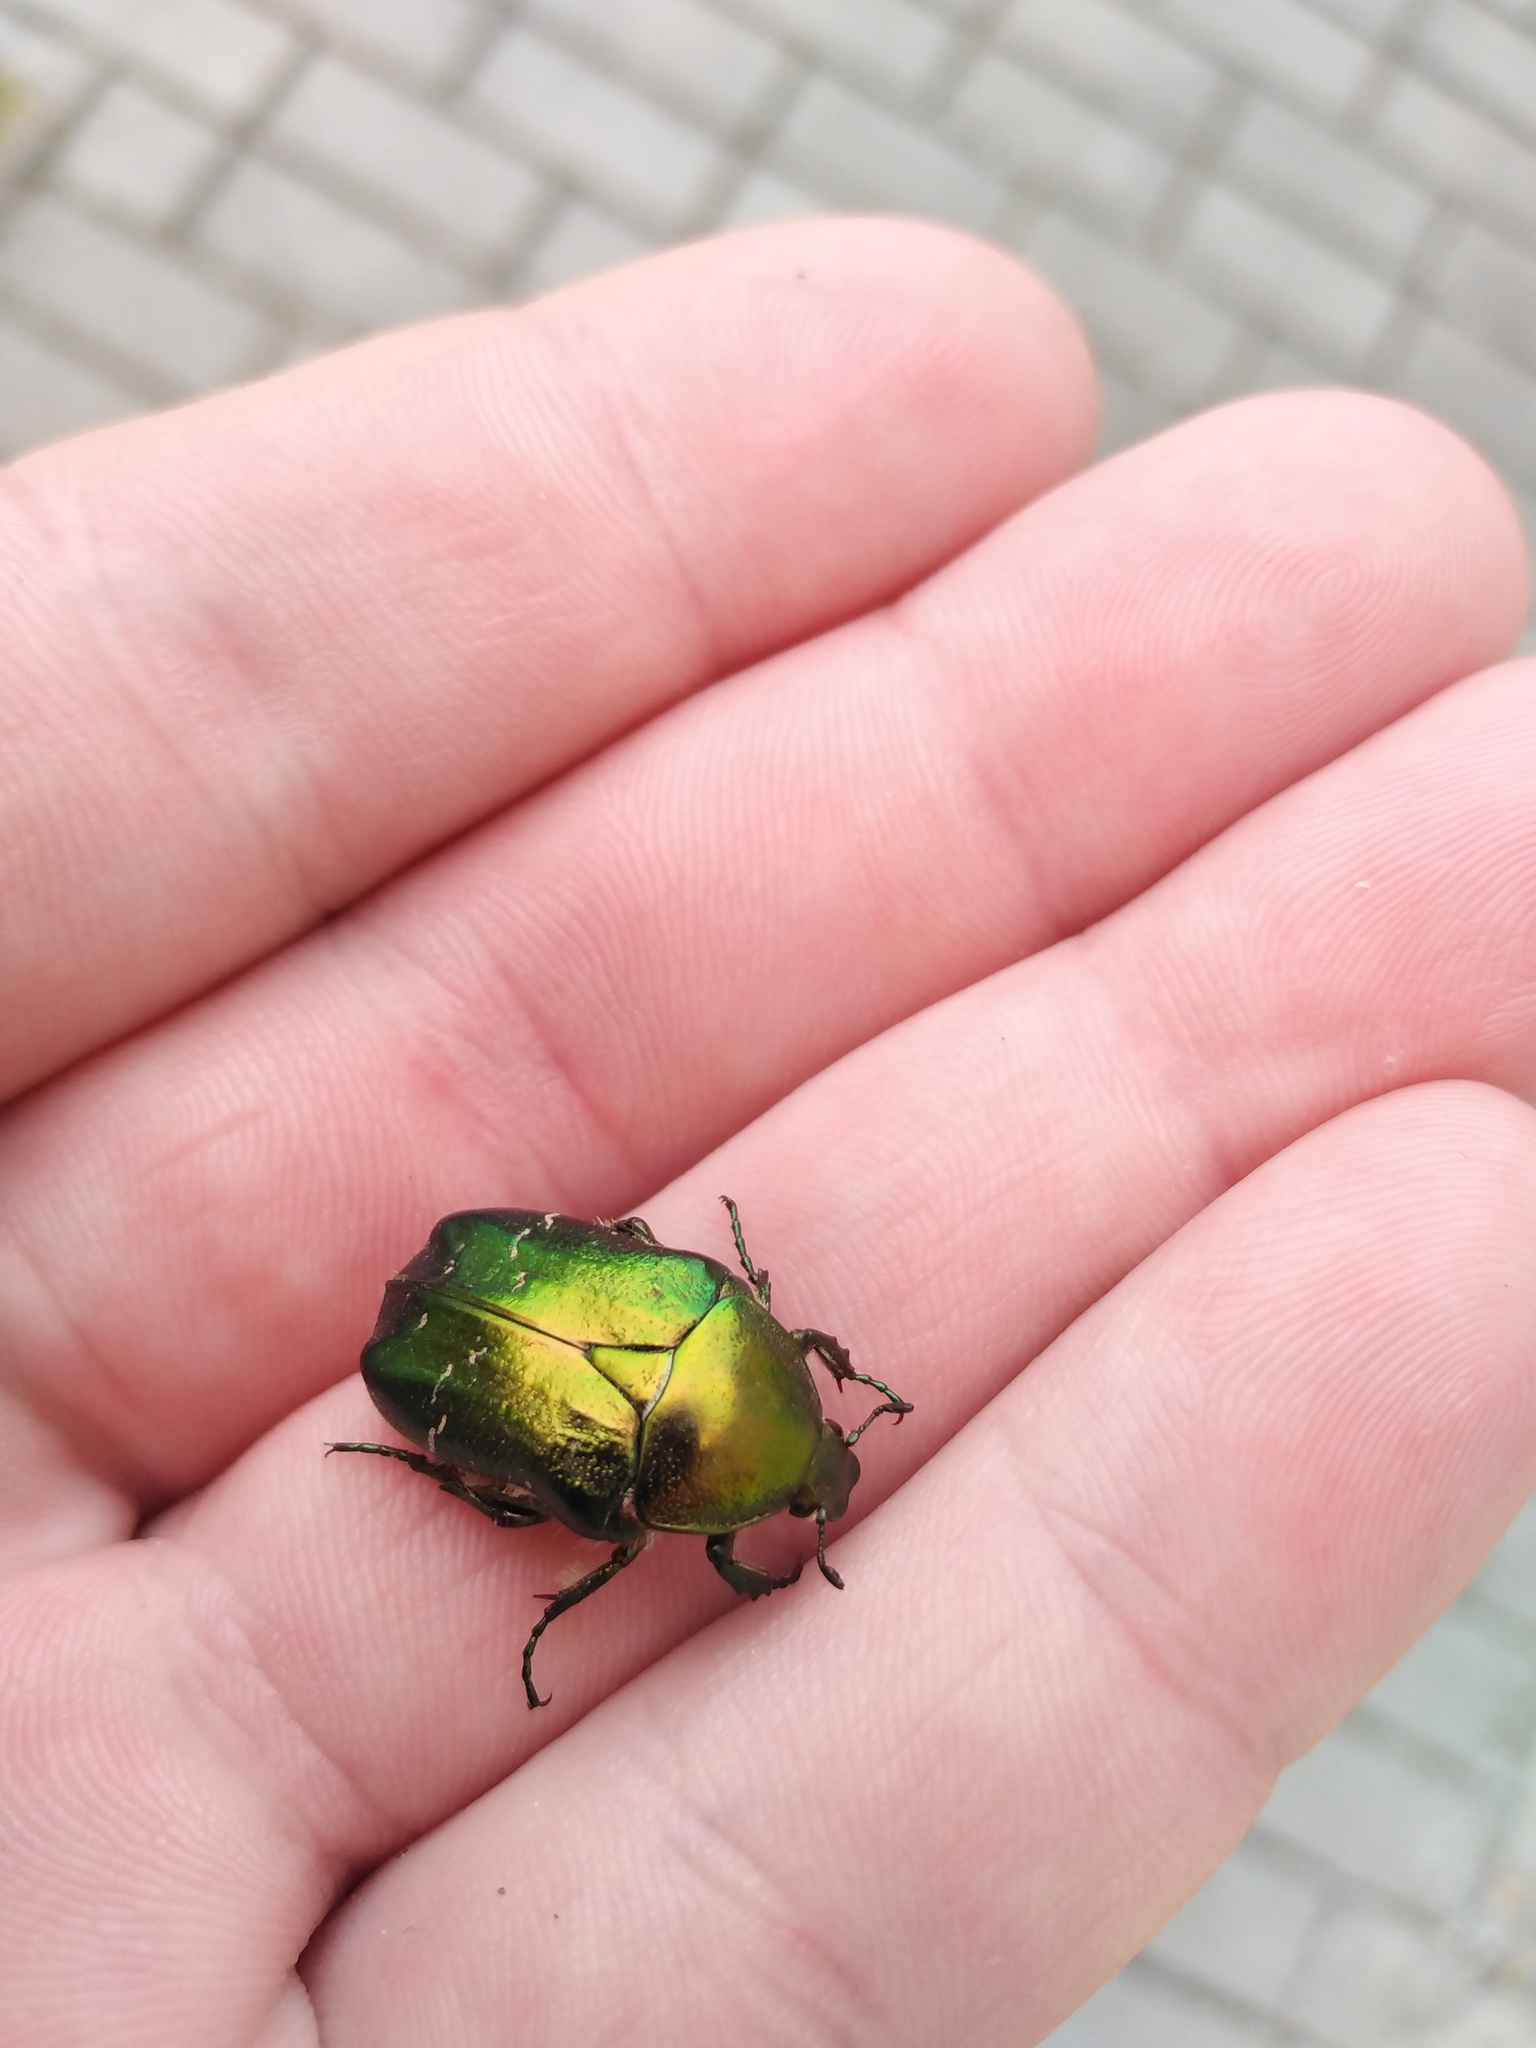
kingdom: Animalia
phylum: Arthropoda
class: Insecta
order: Coleoptera
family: Scarabaeidae
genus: Cetonia
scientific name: Cetonia aurata
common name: Rose chafer
